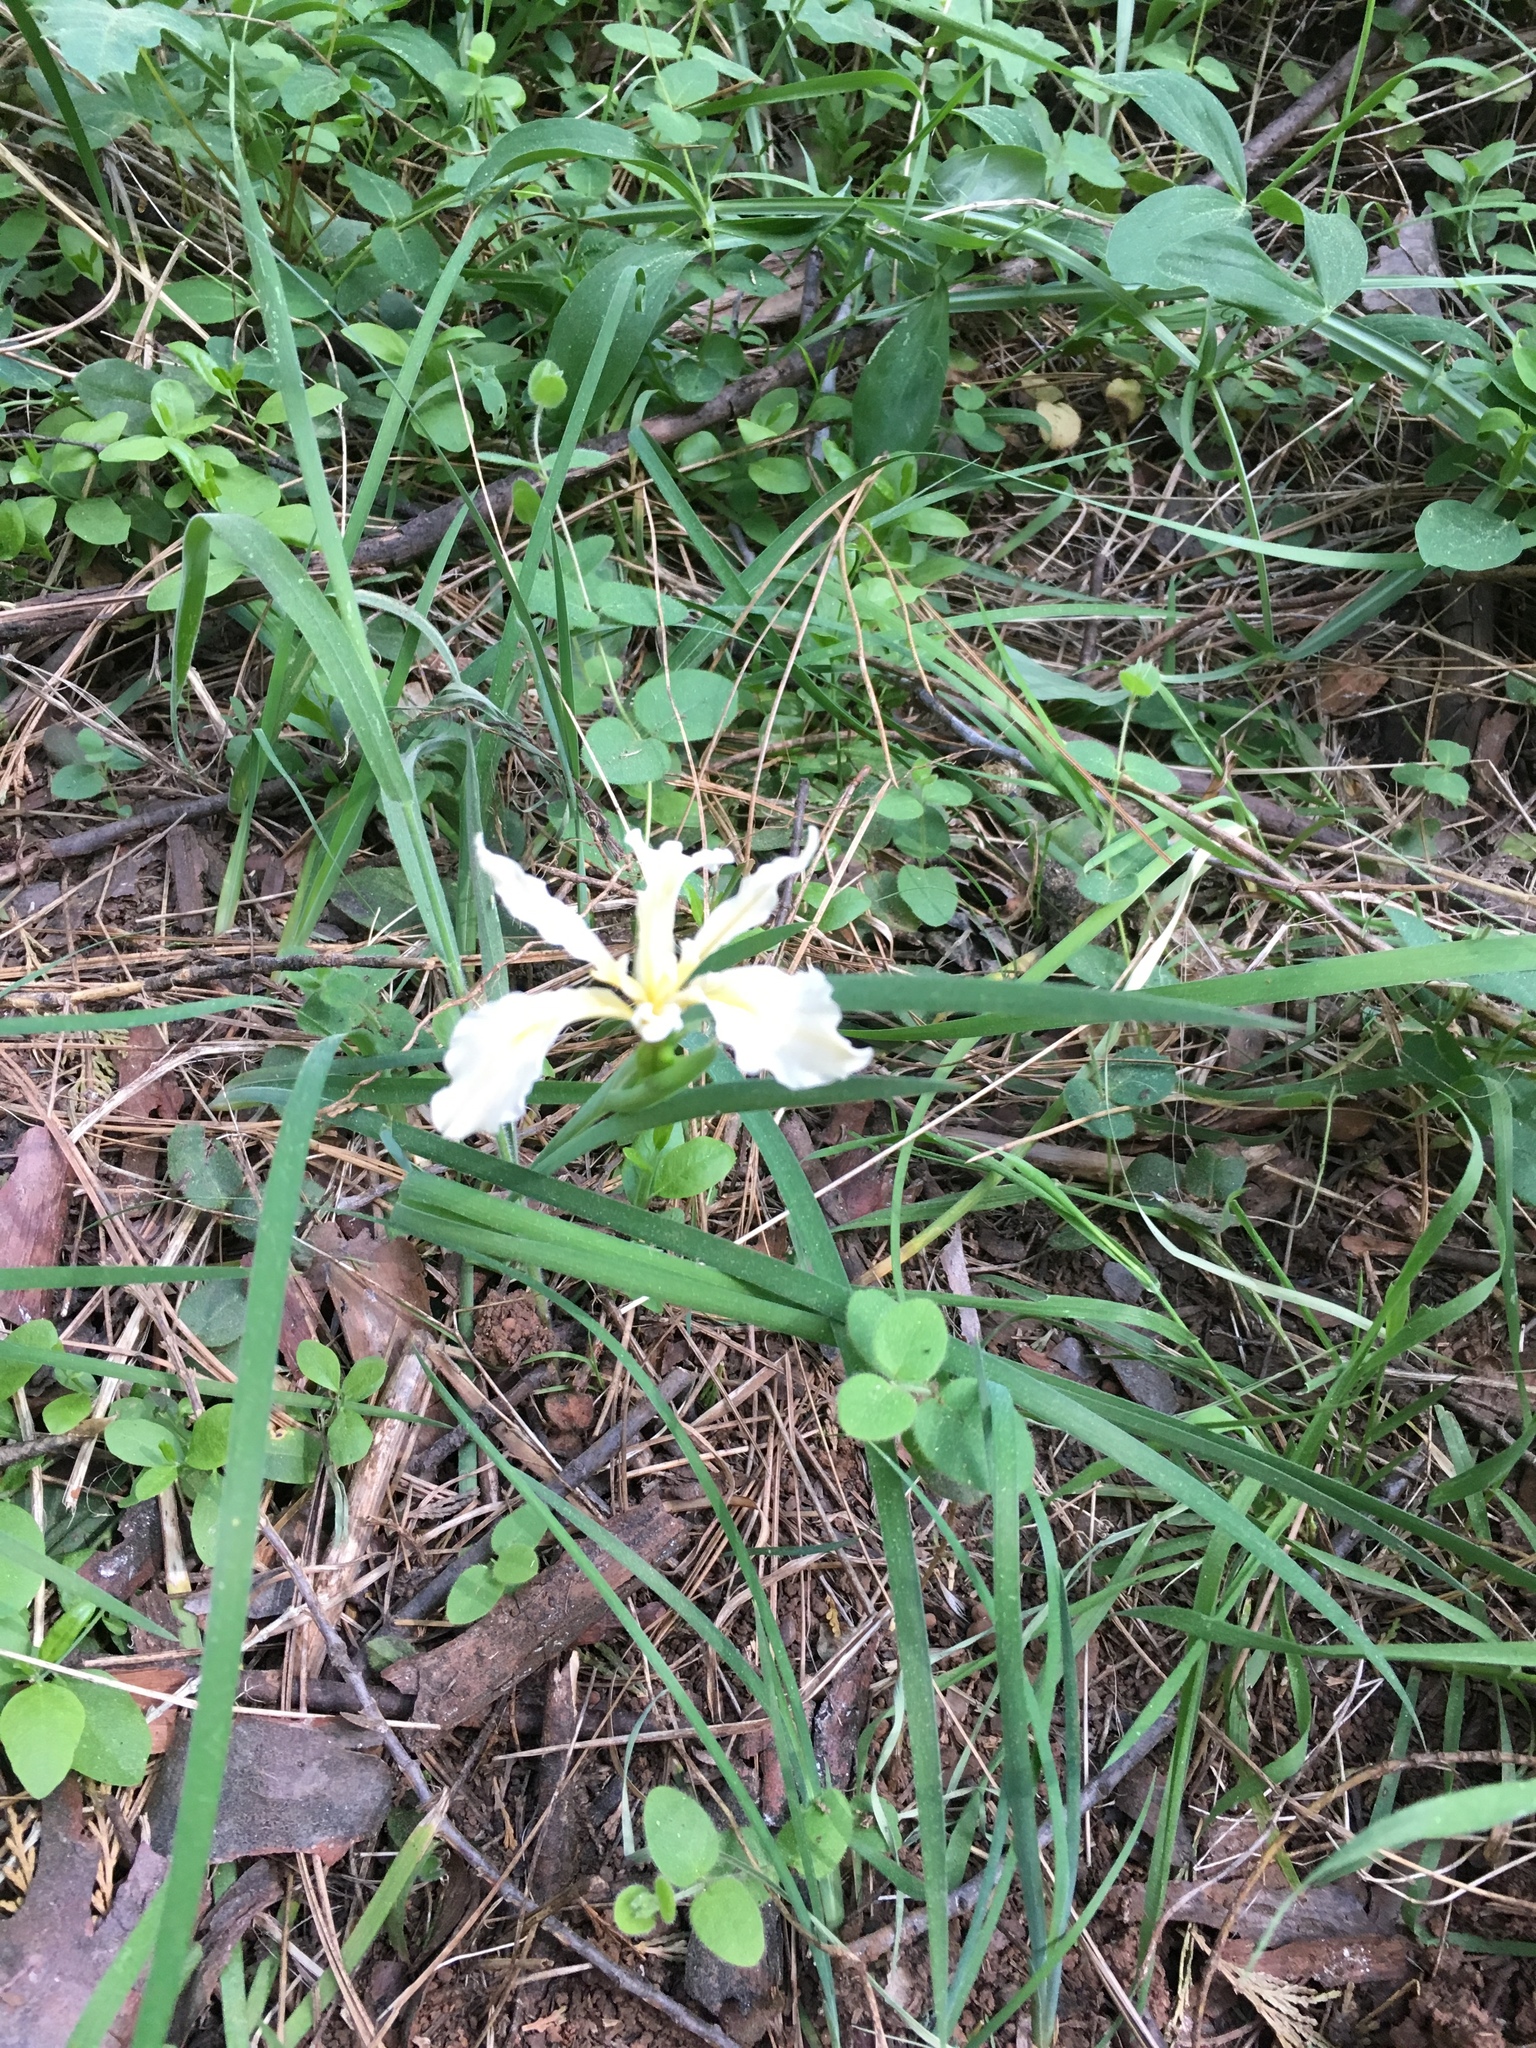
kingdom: Plantae
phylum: Tracheophyta
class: Liliopsida
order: Asparagales
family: Iridaceae
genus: Iris
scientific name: Iris hartwegii
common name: Sierra iris
